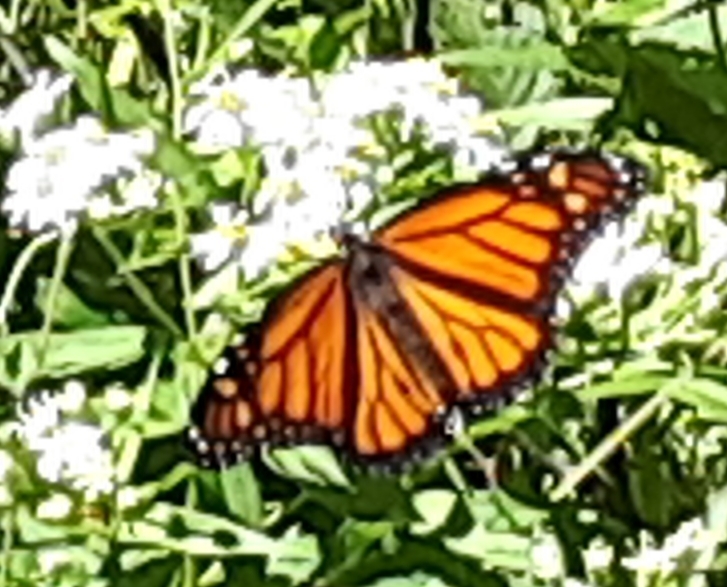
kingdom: Animalia
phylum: Arthropoda
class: Insecta
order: Lepidoptera
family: Nymphalidae
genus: Danaus
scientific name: Danaus plexippus
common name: Monarch
